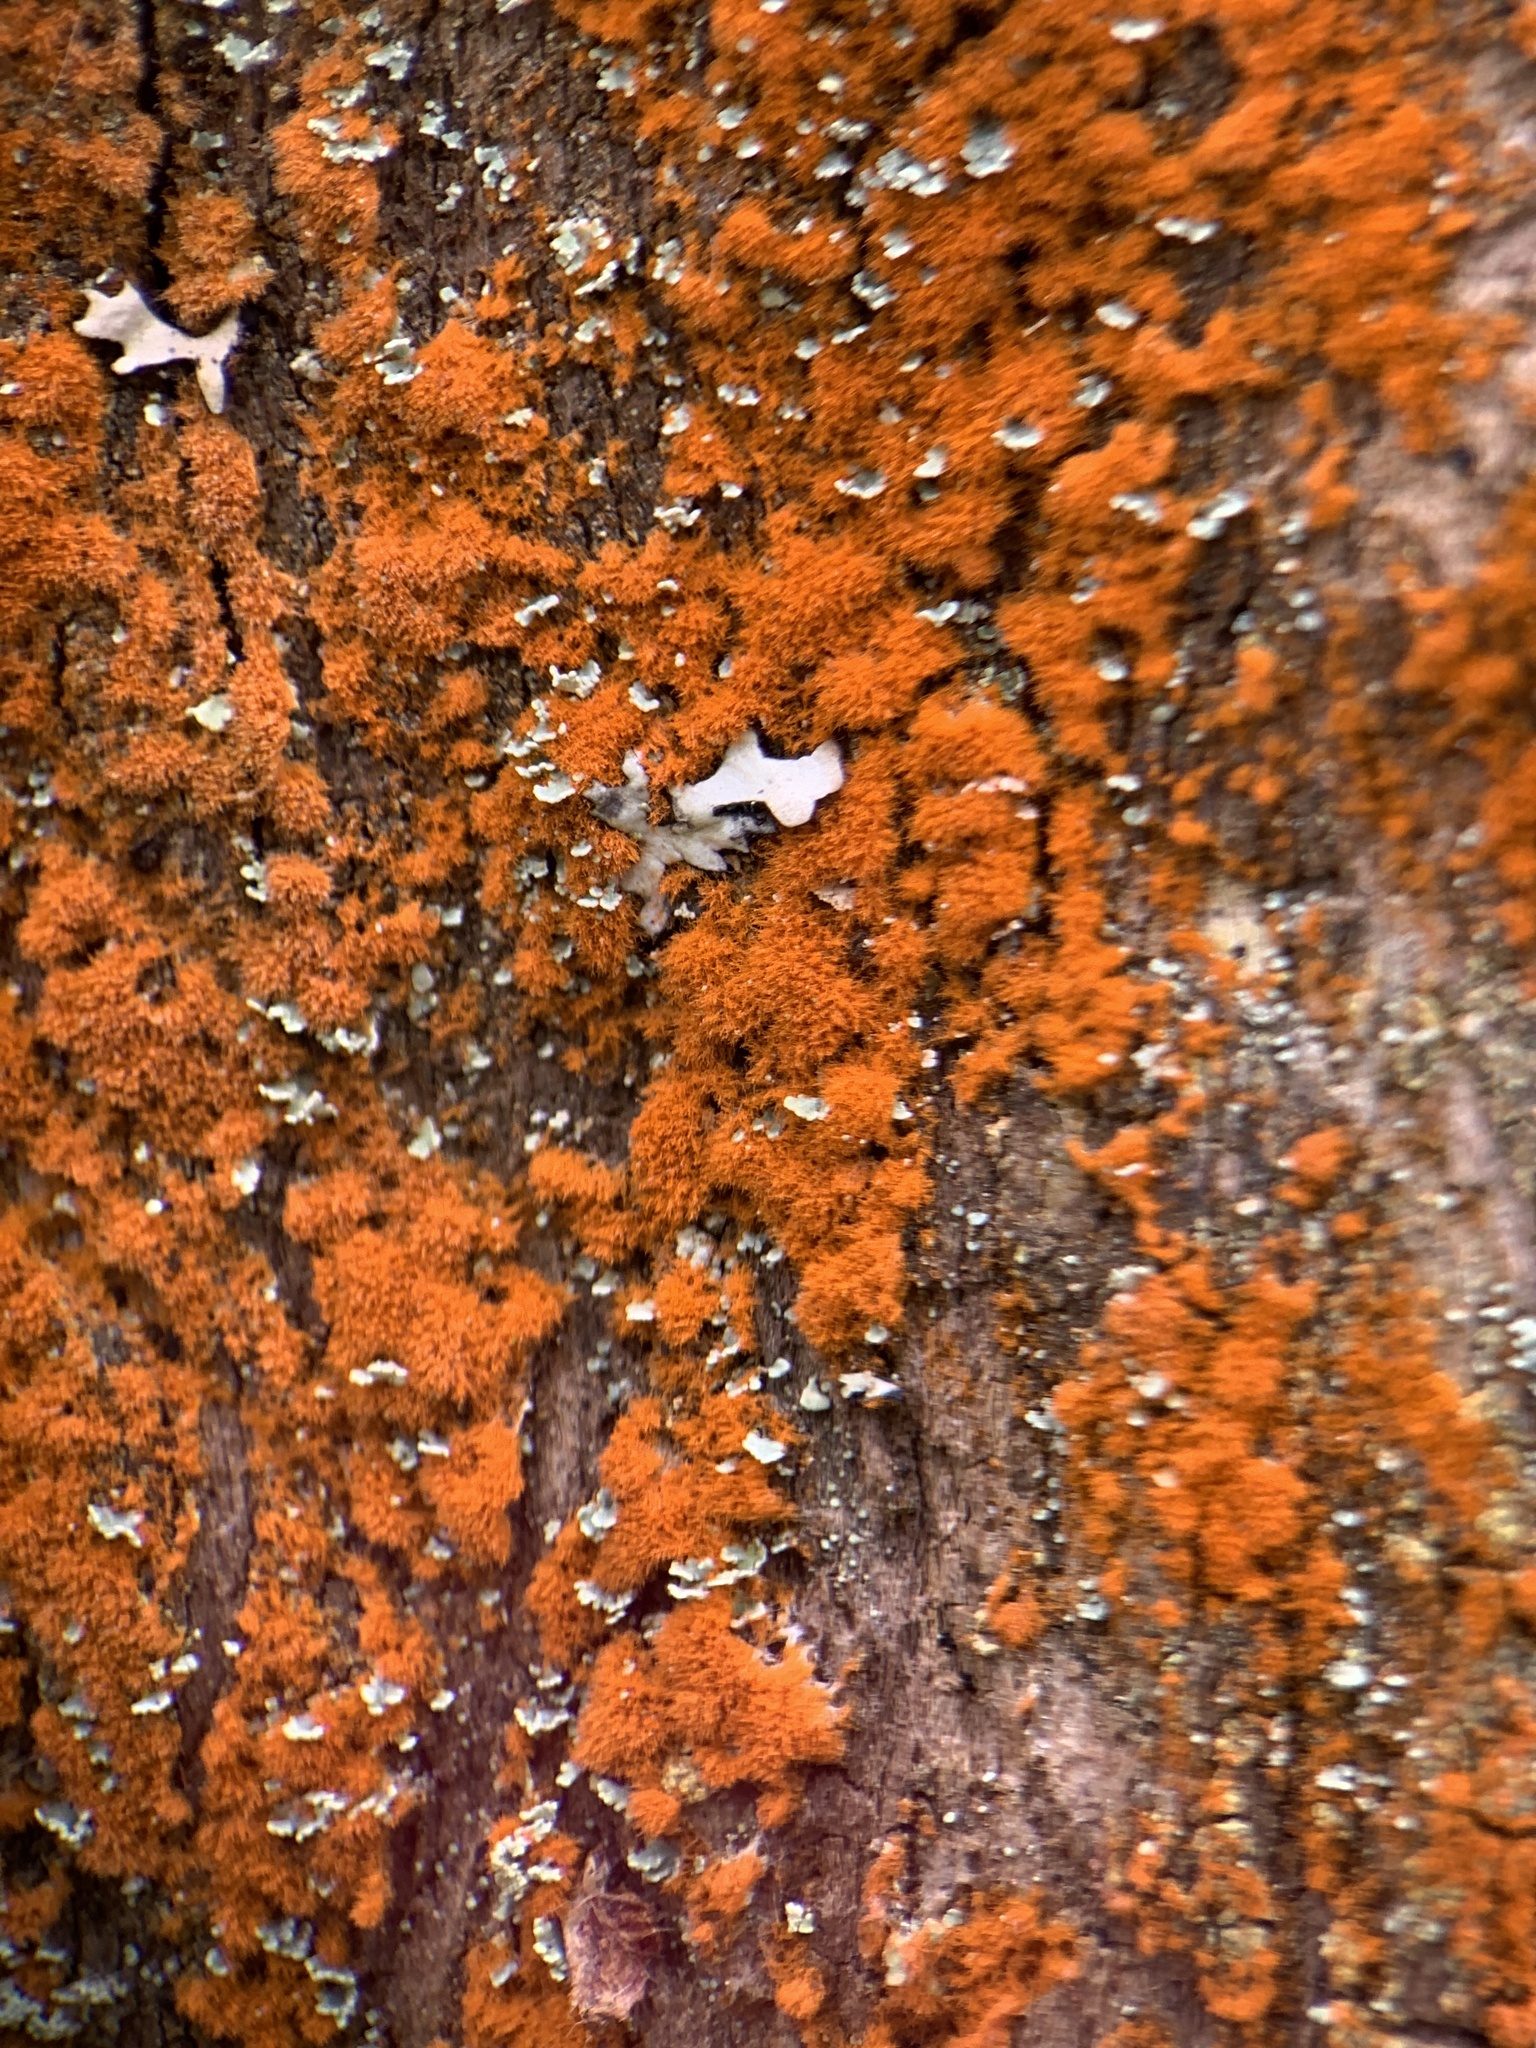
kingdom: Plantae
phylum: Chlorophyta
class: Ulvophyceae
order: Trentepohliales
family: Trentepohliaceae
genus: Trentepohlia
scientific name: Trentepohlia aurea
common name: Orange rock hair
